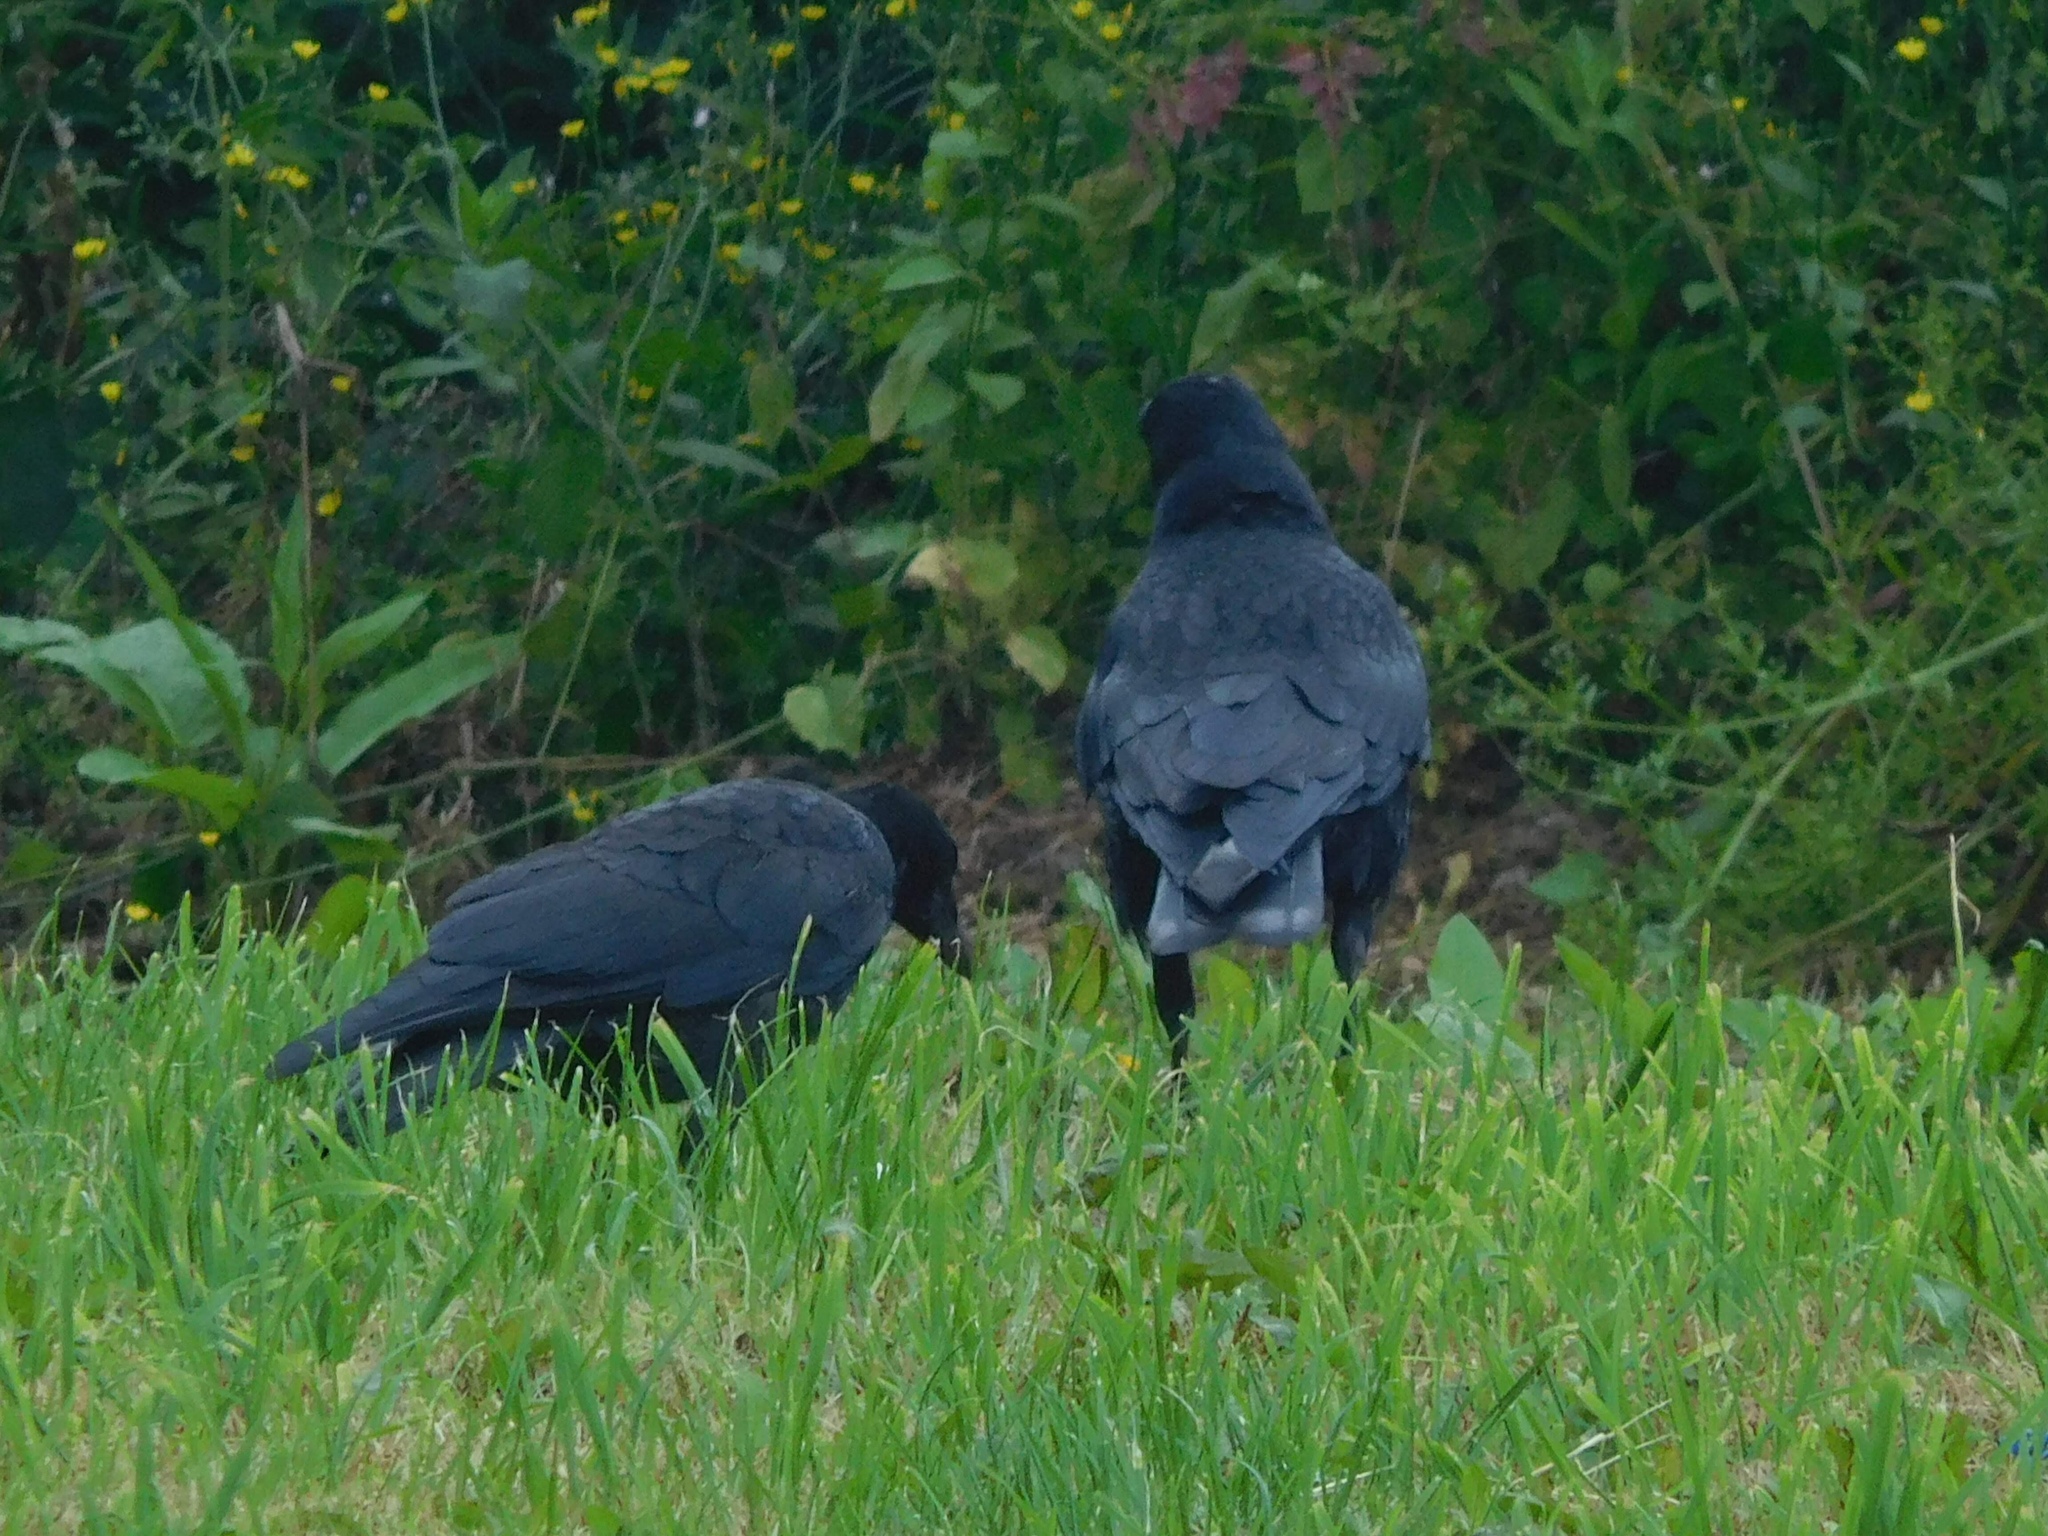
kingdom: Animalia
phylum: Chordata
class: Aves
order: Passeriformes
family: Corvidae
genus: Corvus
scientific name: Corvus corone
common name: Carrion crow
